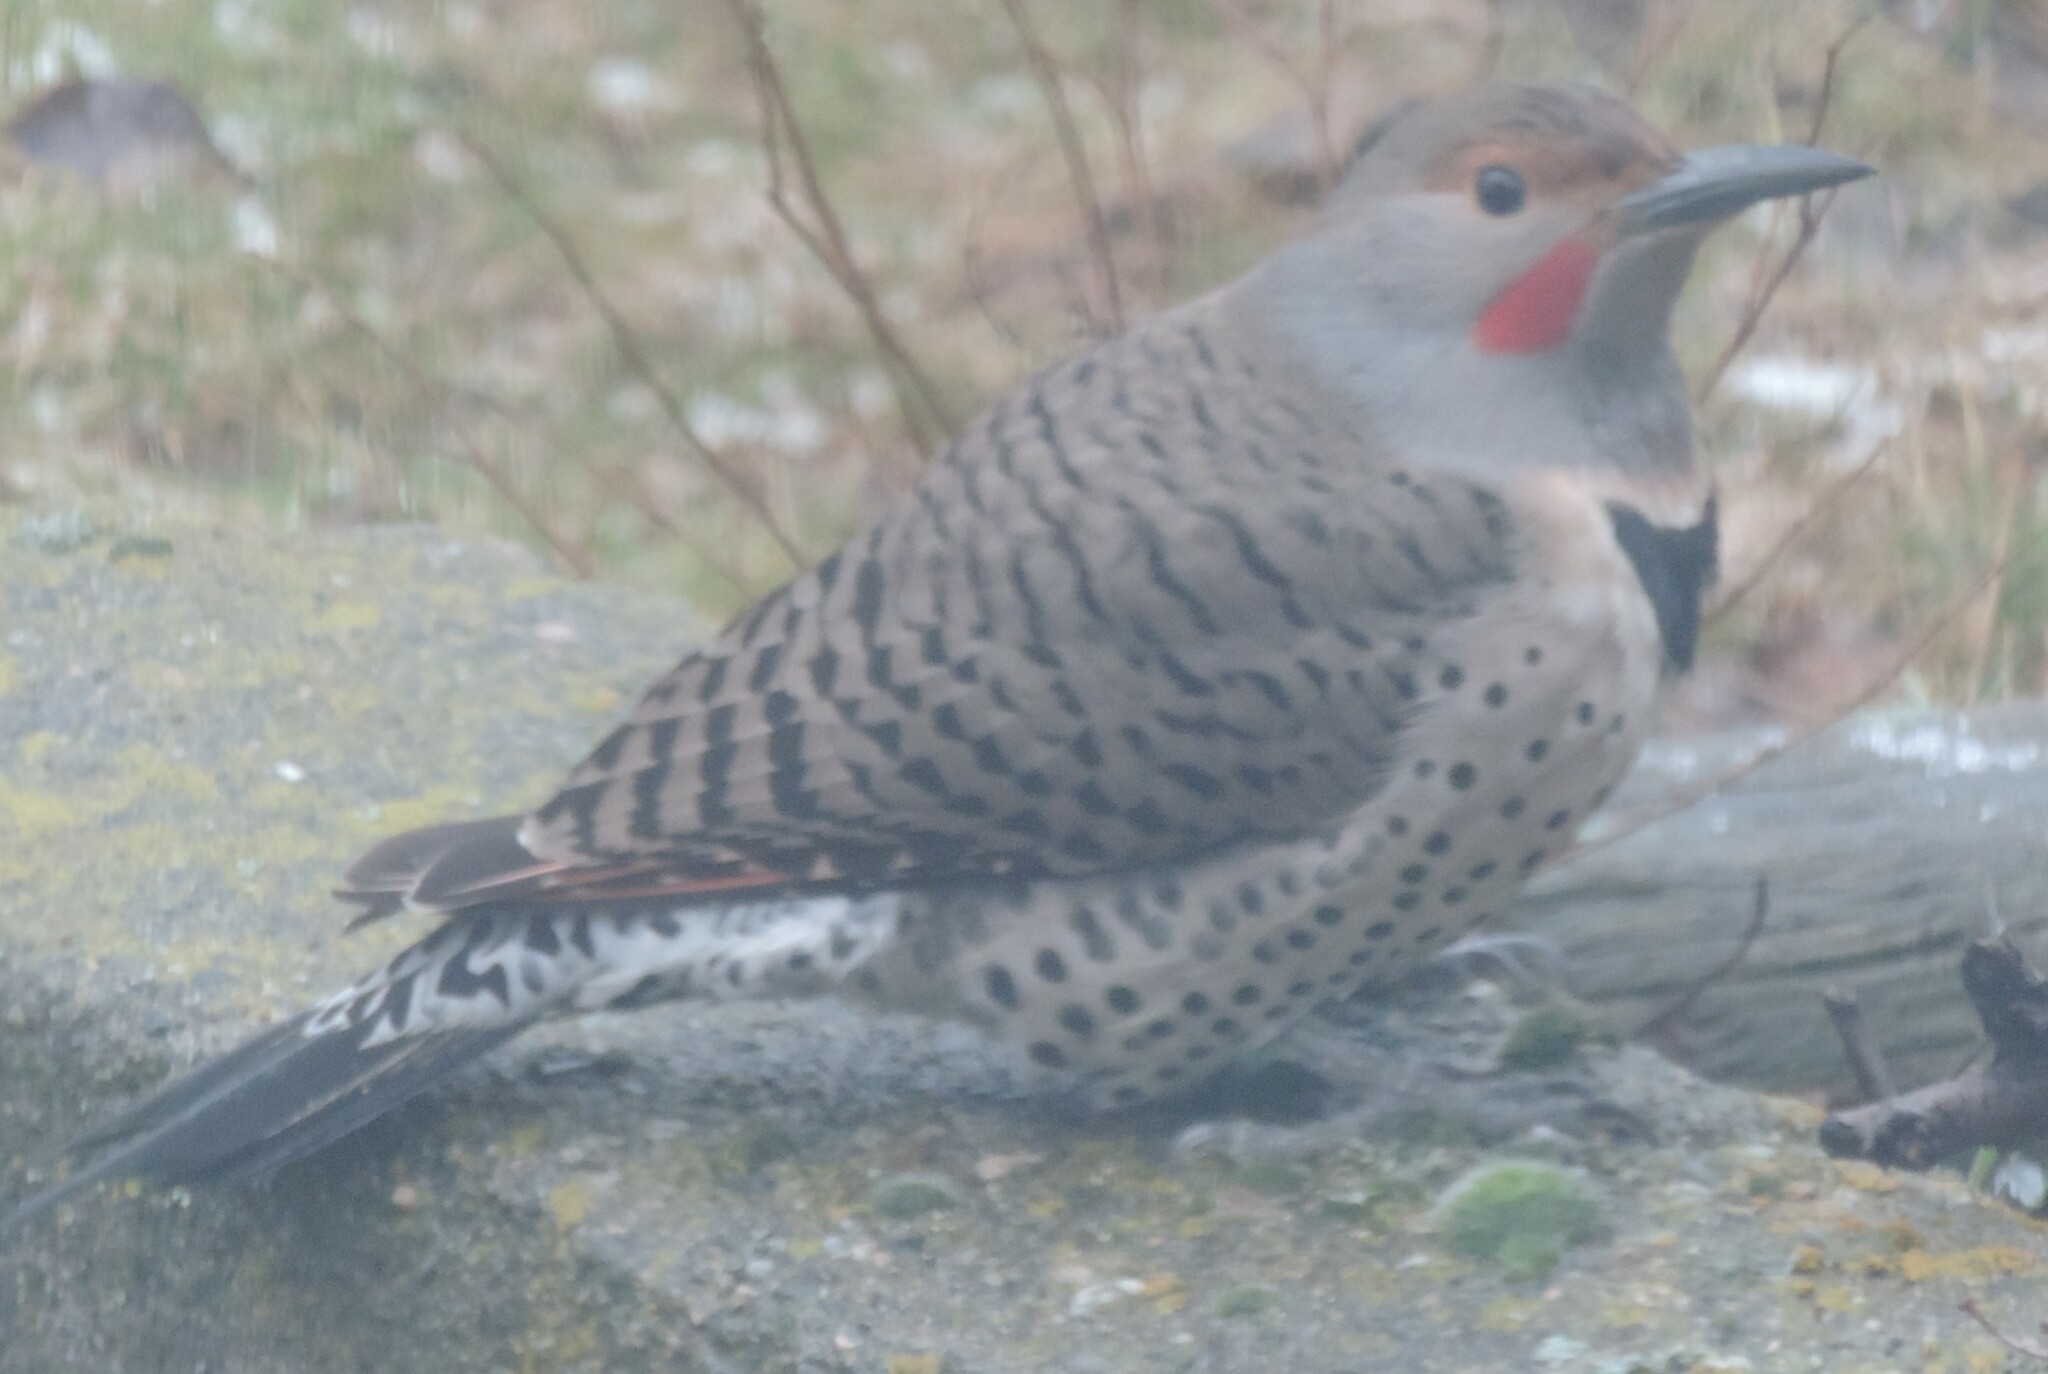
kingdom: Animalia
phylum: Chordata
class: Aves
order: Piciformes
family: Picidae
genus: Colaptes
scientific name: Colaptes auratus
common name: Northern flicker
